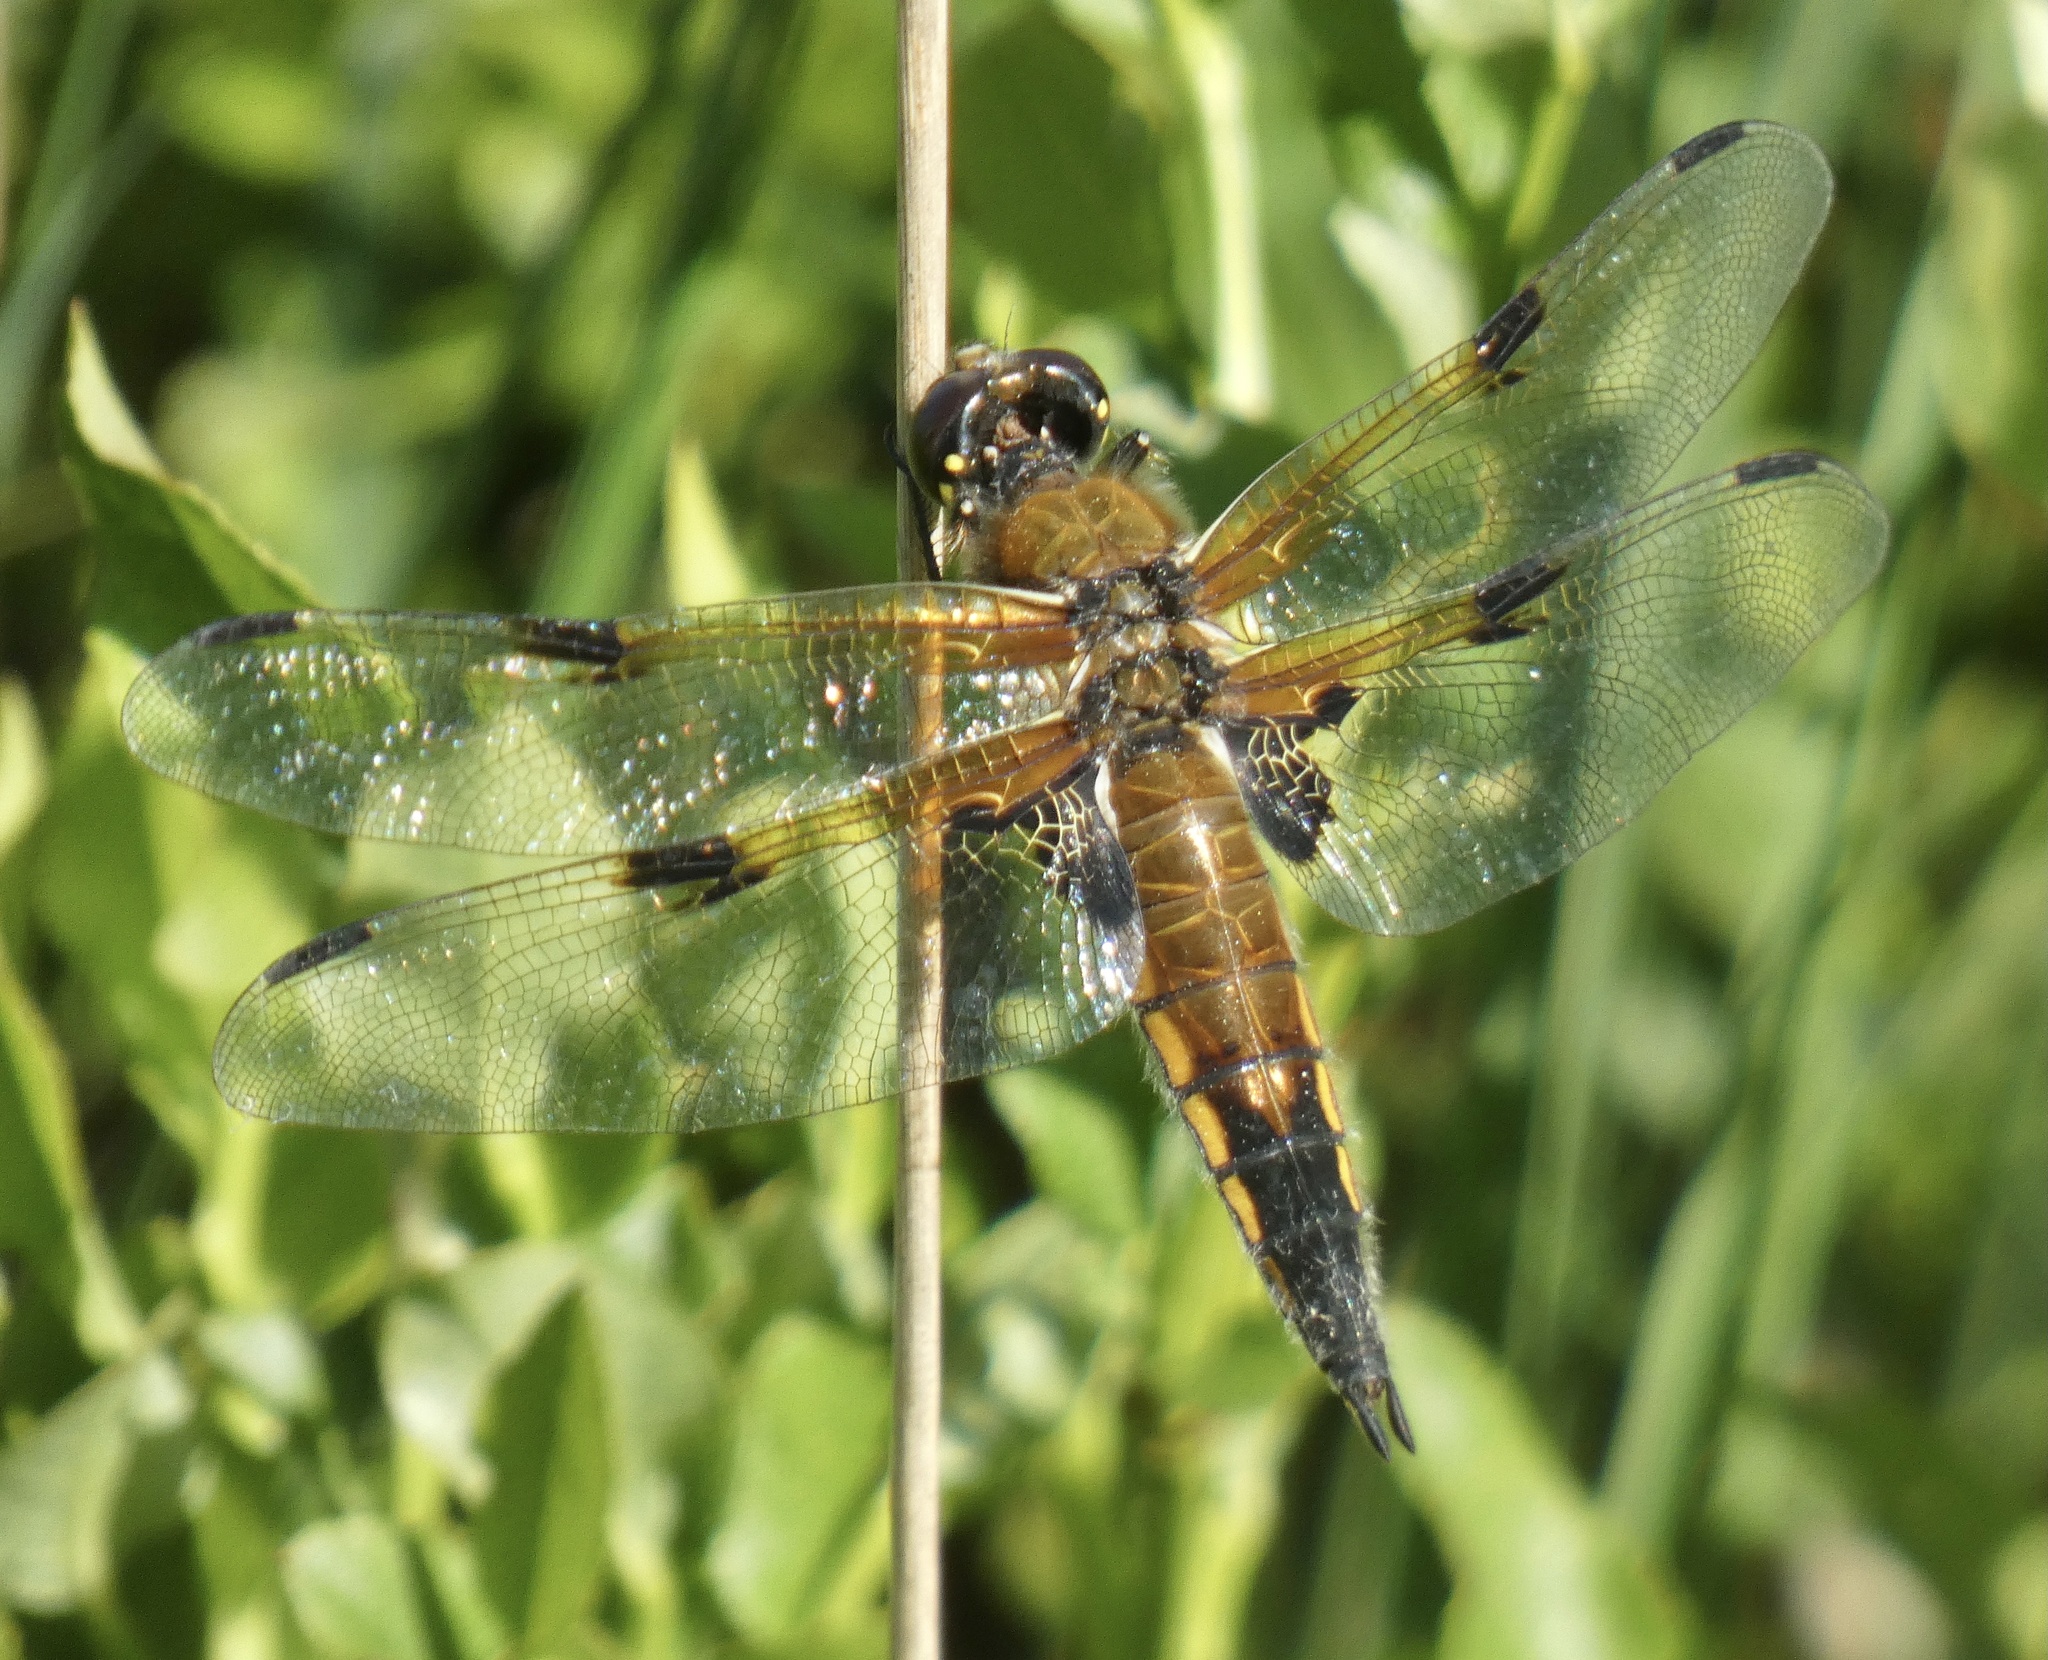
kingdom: Animalia
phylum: Arthropoda
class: Insecta
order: Odonata
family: Libellulidae
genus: Libellula
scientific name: Libellula quadrimaculata
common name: Four-spotted chaser
